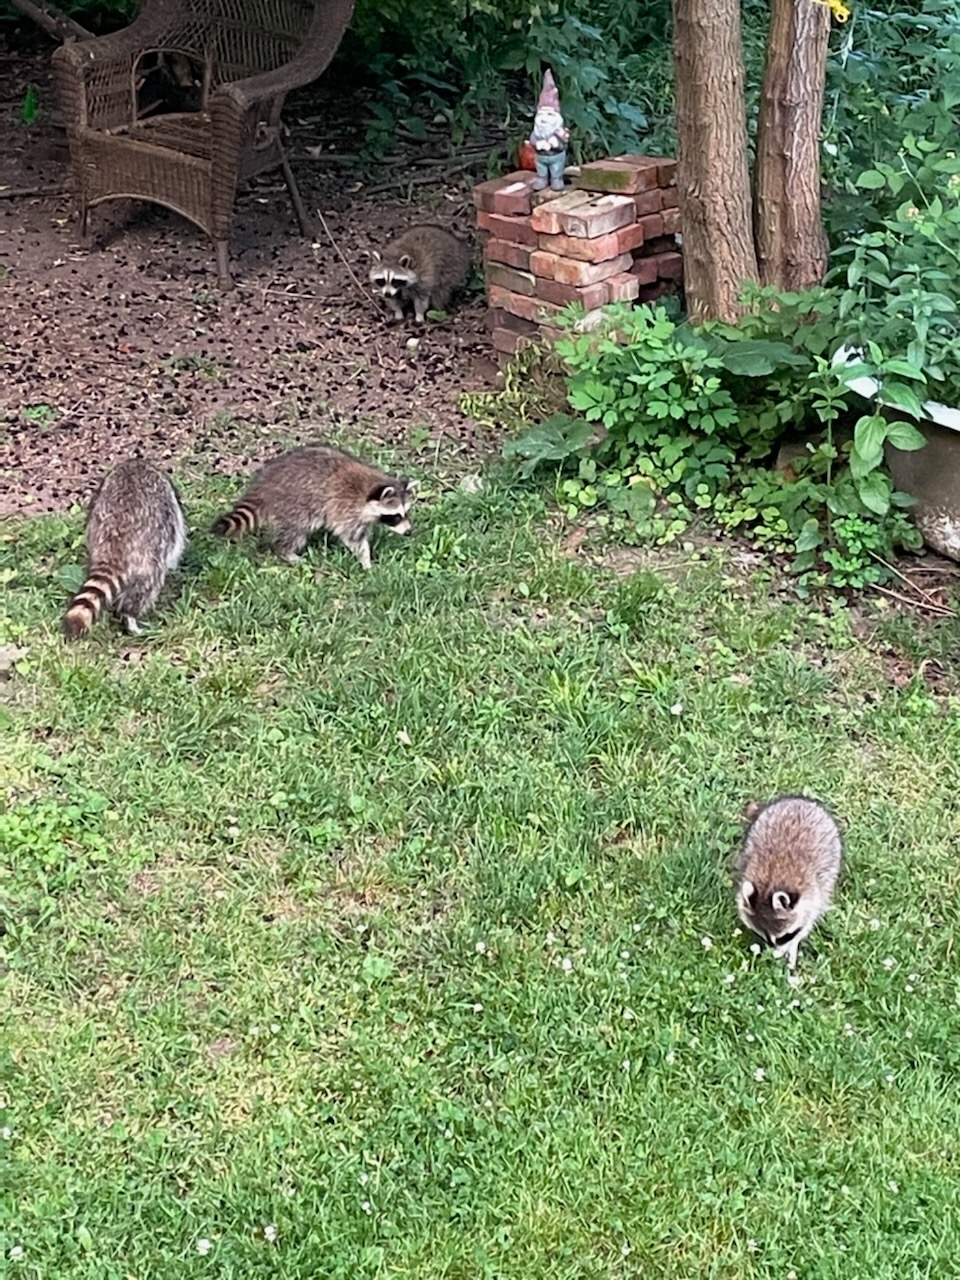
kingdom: Animalia
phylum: Chordata
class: Mammalia
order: Carnivora
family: Procyonidae
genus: Procyon
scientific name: Procyon lotor
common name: Raccoon
